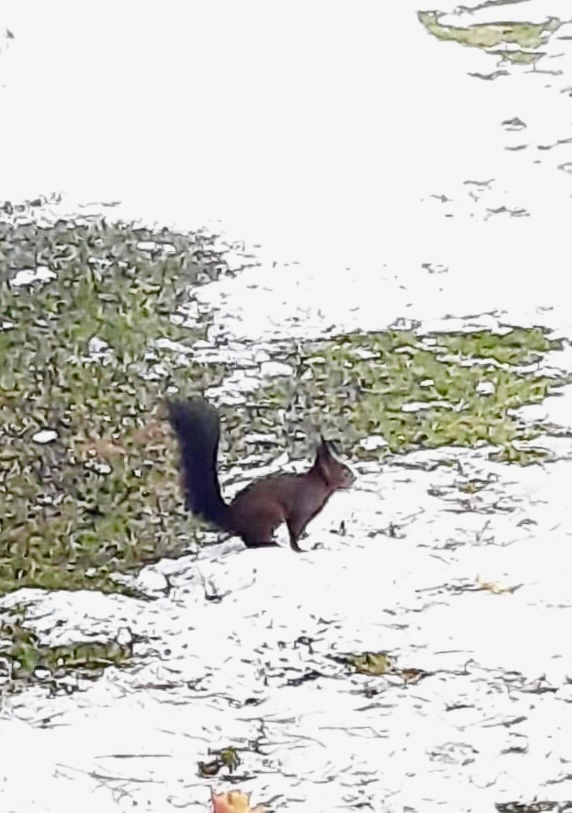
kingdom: Animalia
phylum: Chordata
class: Mammalia
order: Rodentia
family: Sciuridae
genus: Sciurus
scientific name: Sciurus vulgaris
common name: Eurasian red squirrel
